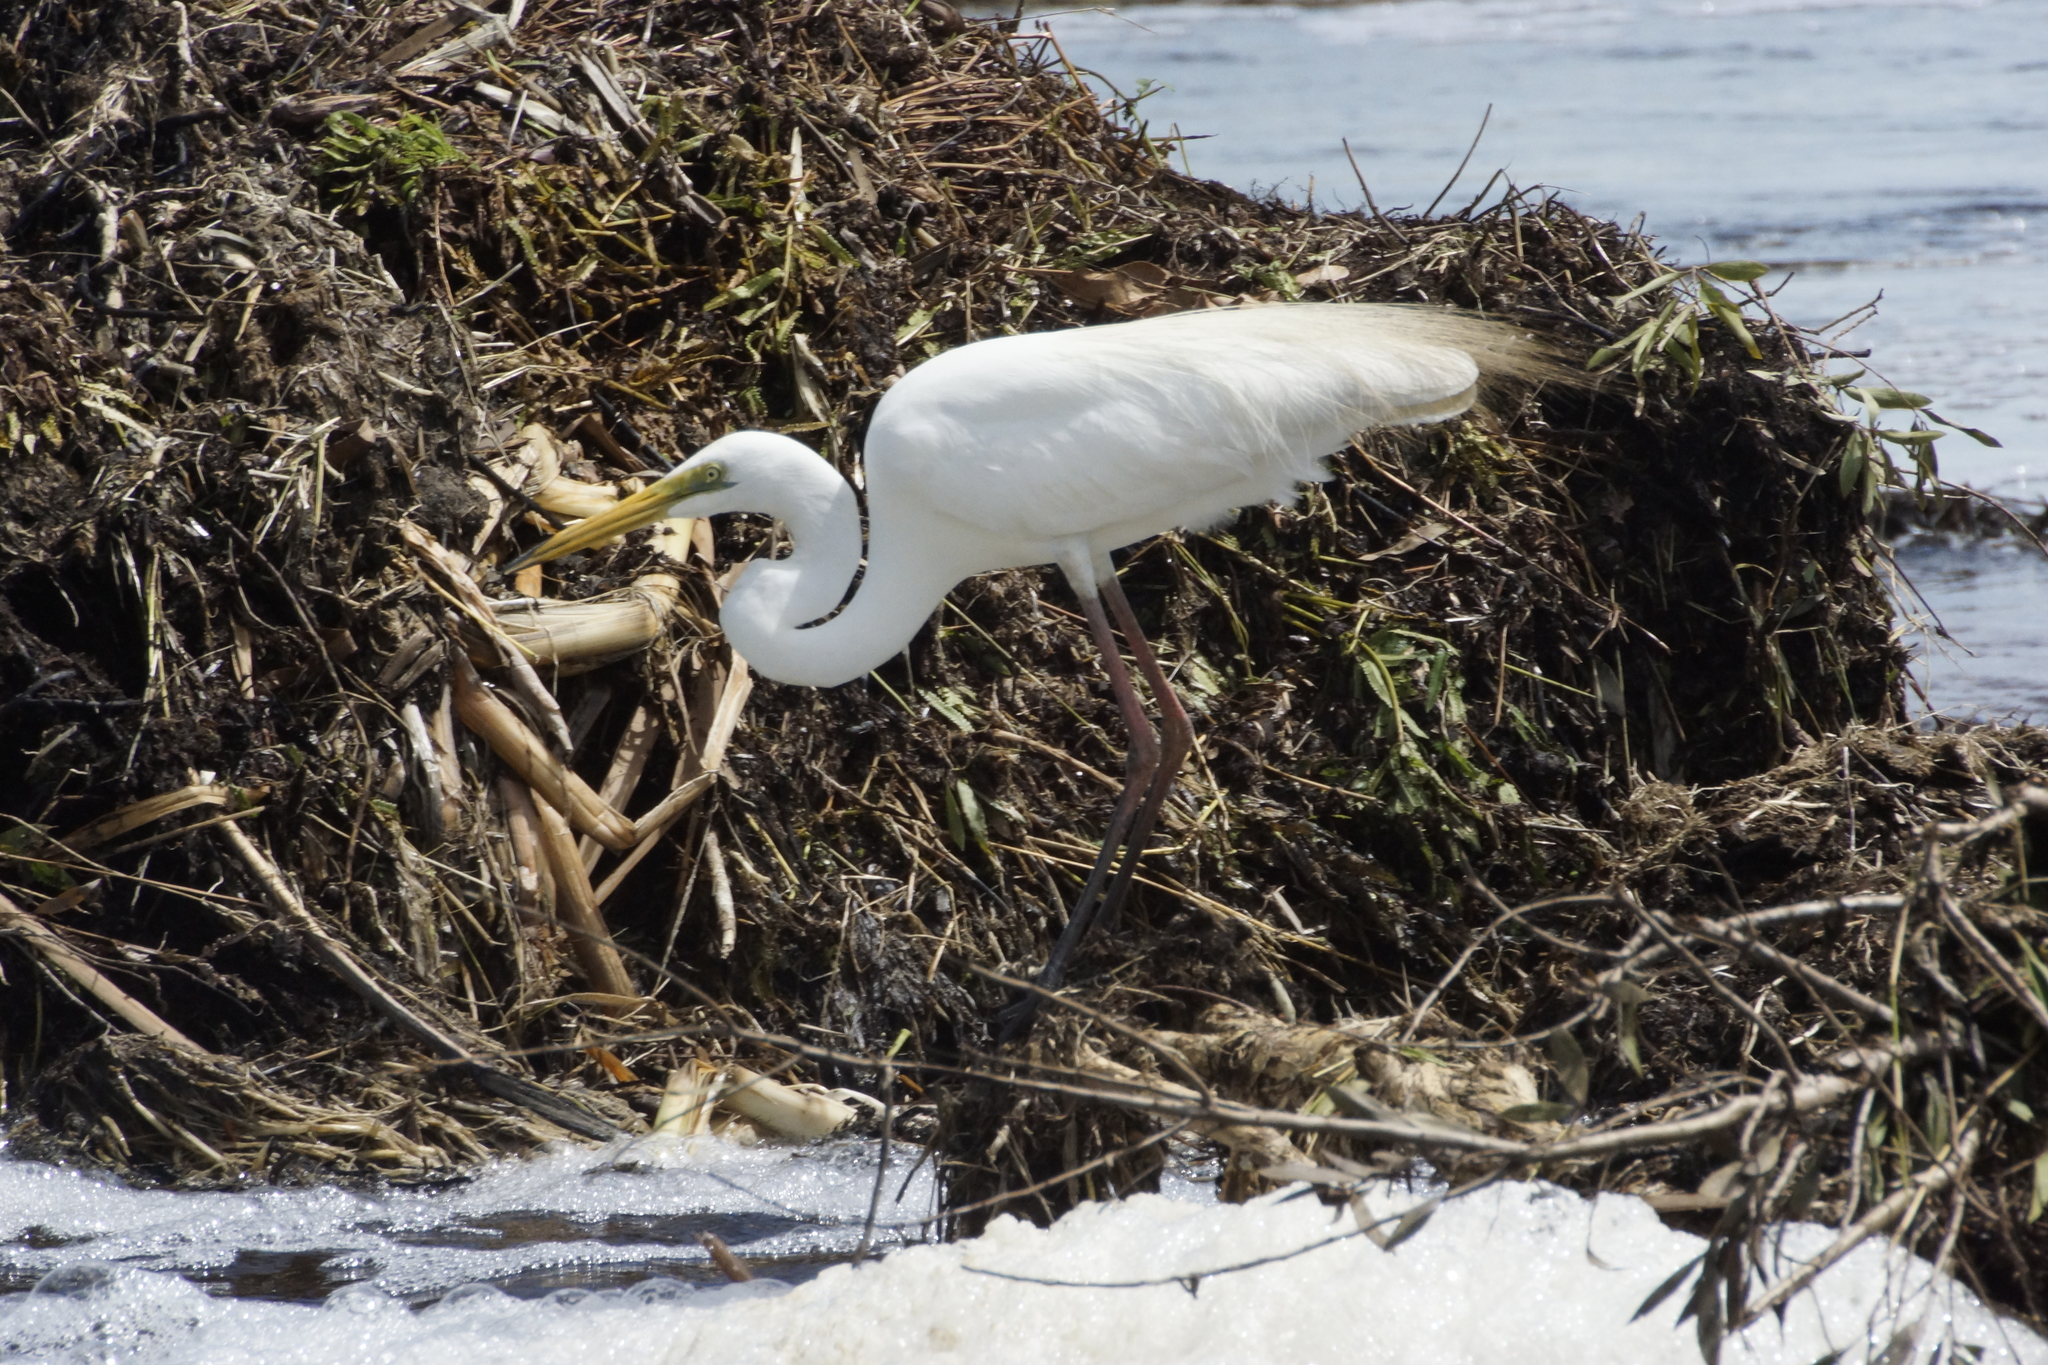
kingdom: Animalia
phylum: Chordata
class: Aves
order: Pelecaniformes
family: Ardeidae
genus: Ardea
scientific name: Ardea alba
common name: Great egret
